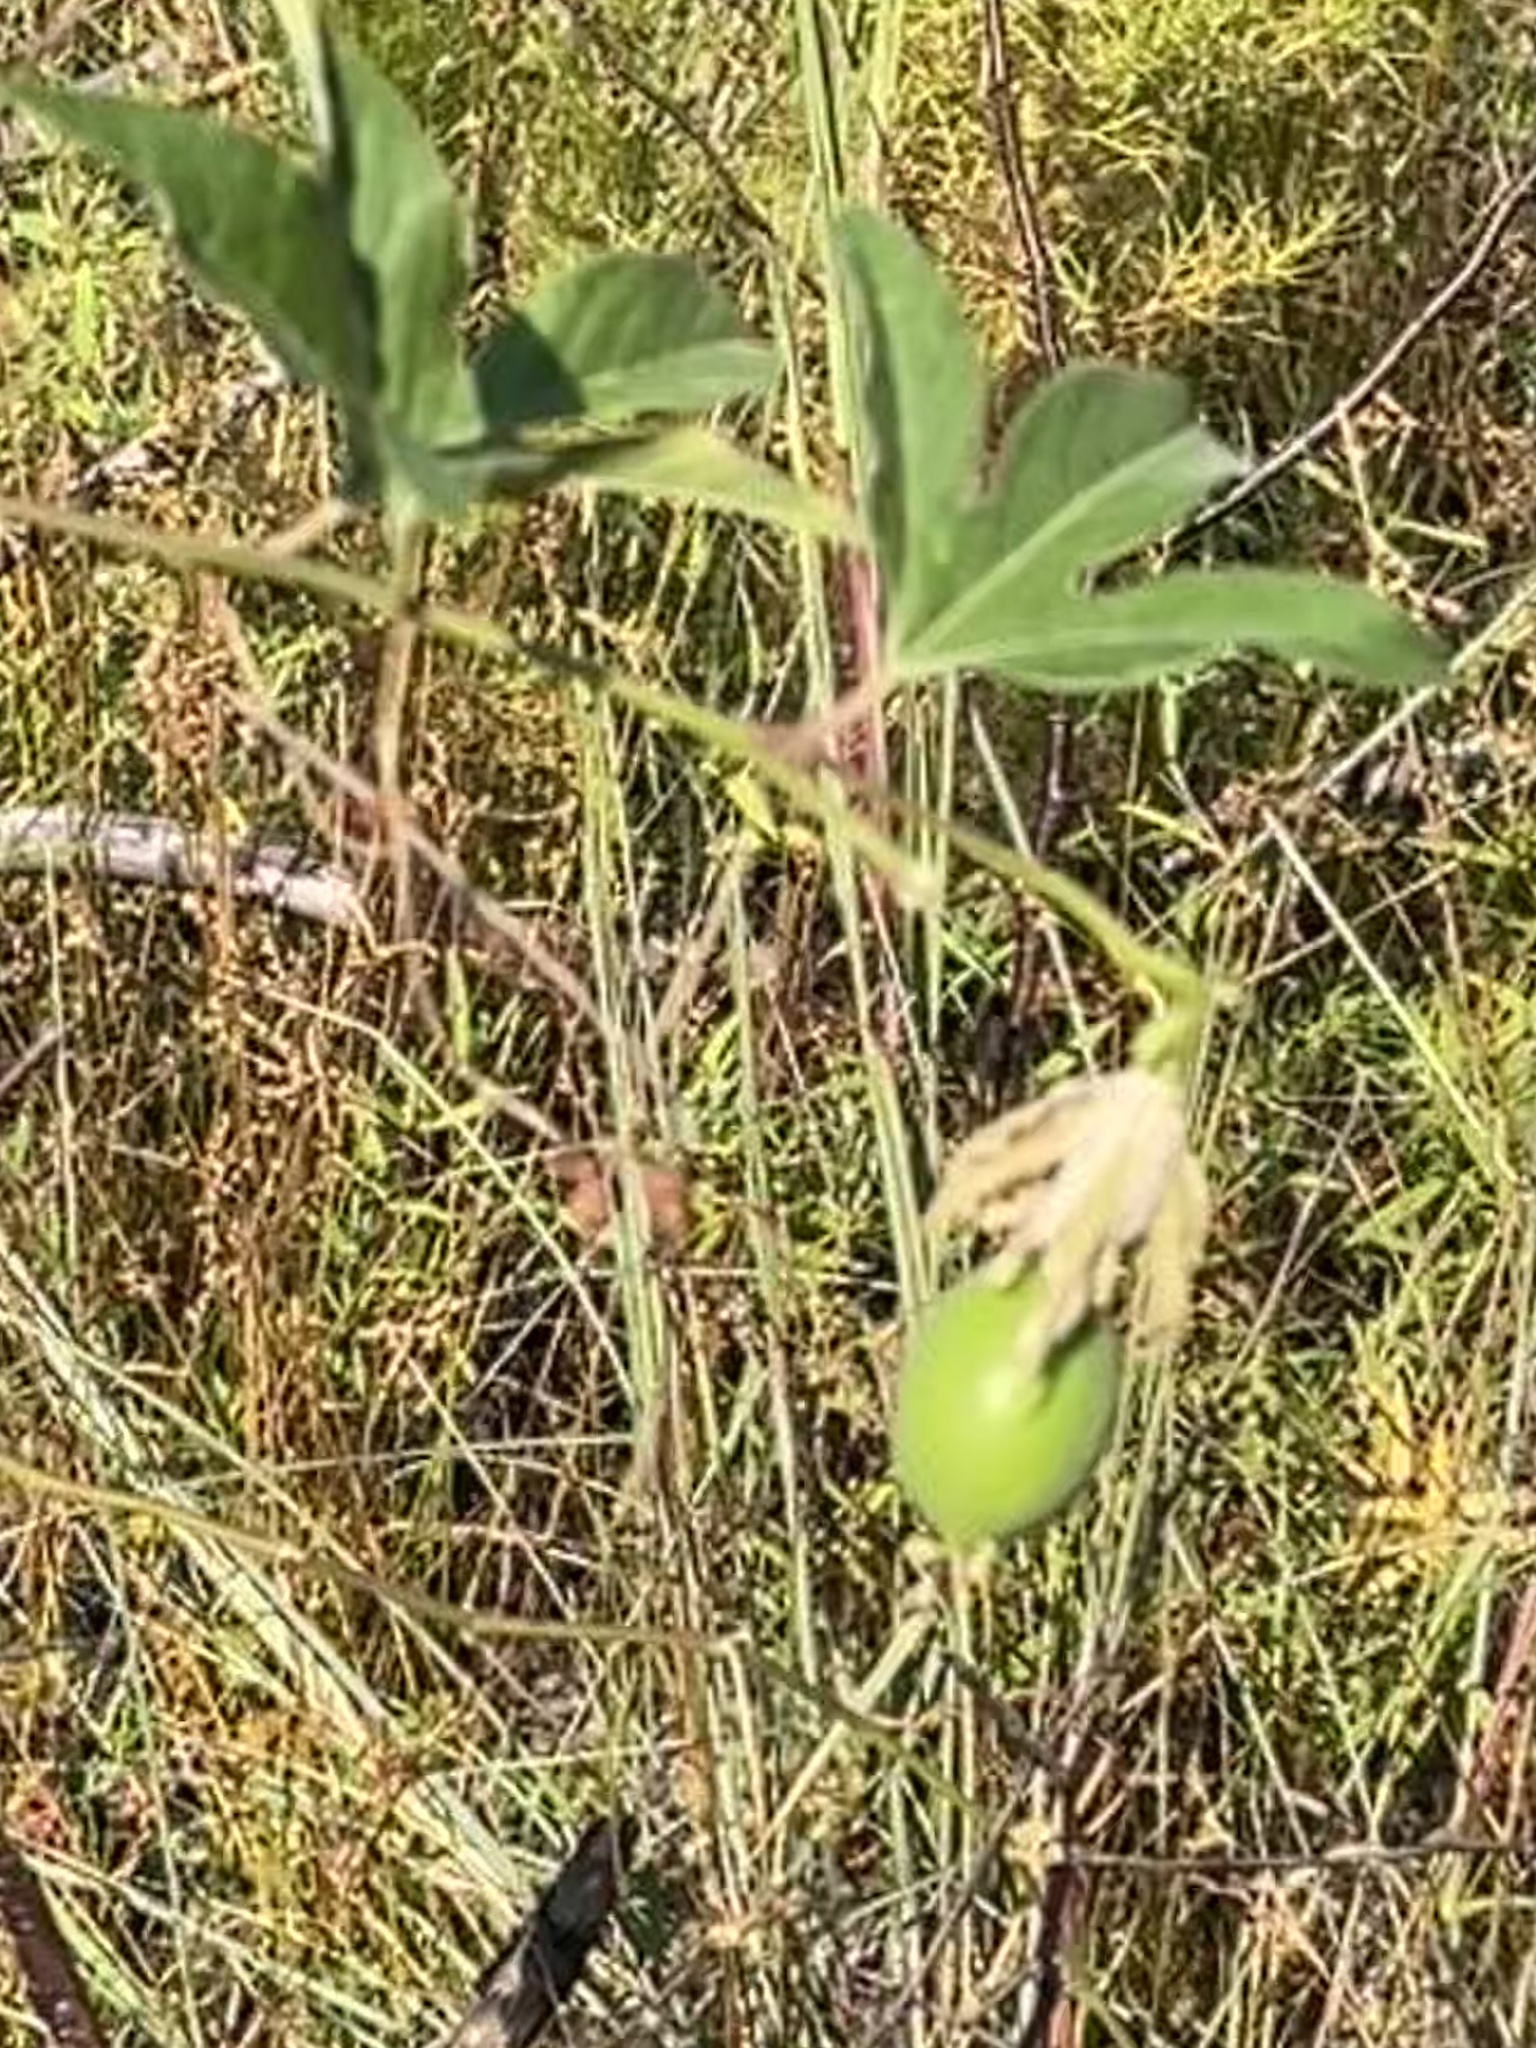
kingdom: Plantae
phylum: Tracheophyta
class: Magnoliopsida
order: Malpighiales
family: Passifloraceae
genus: Passiflora
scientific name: Passiflora incarnata
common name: Apricot-vine
